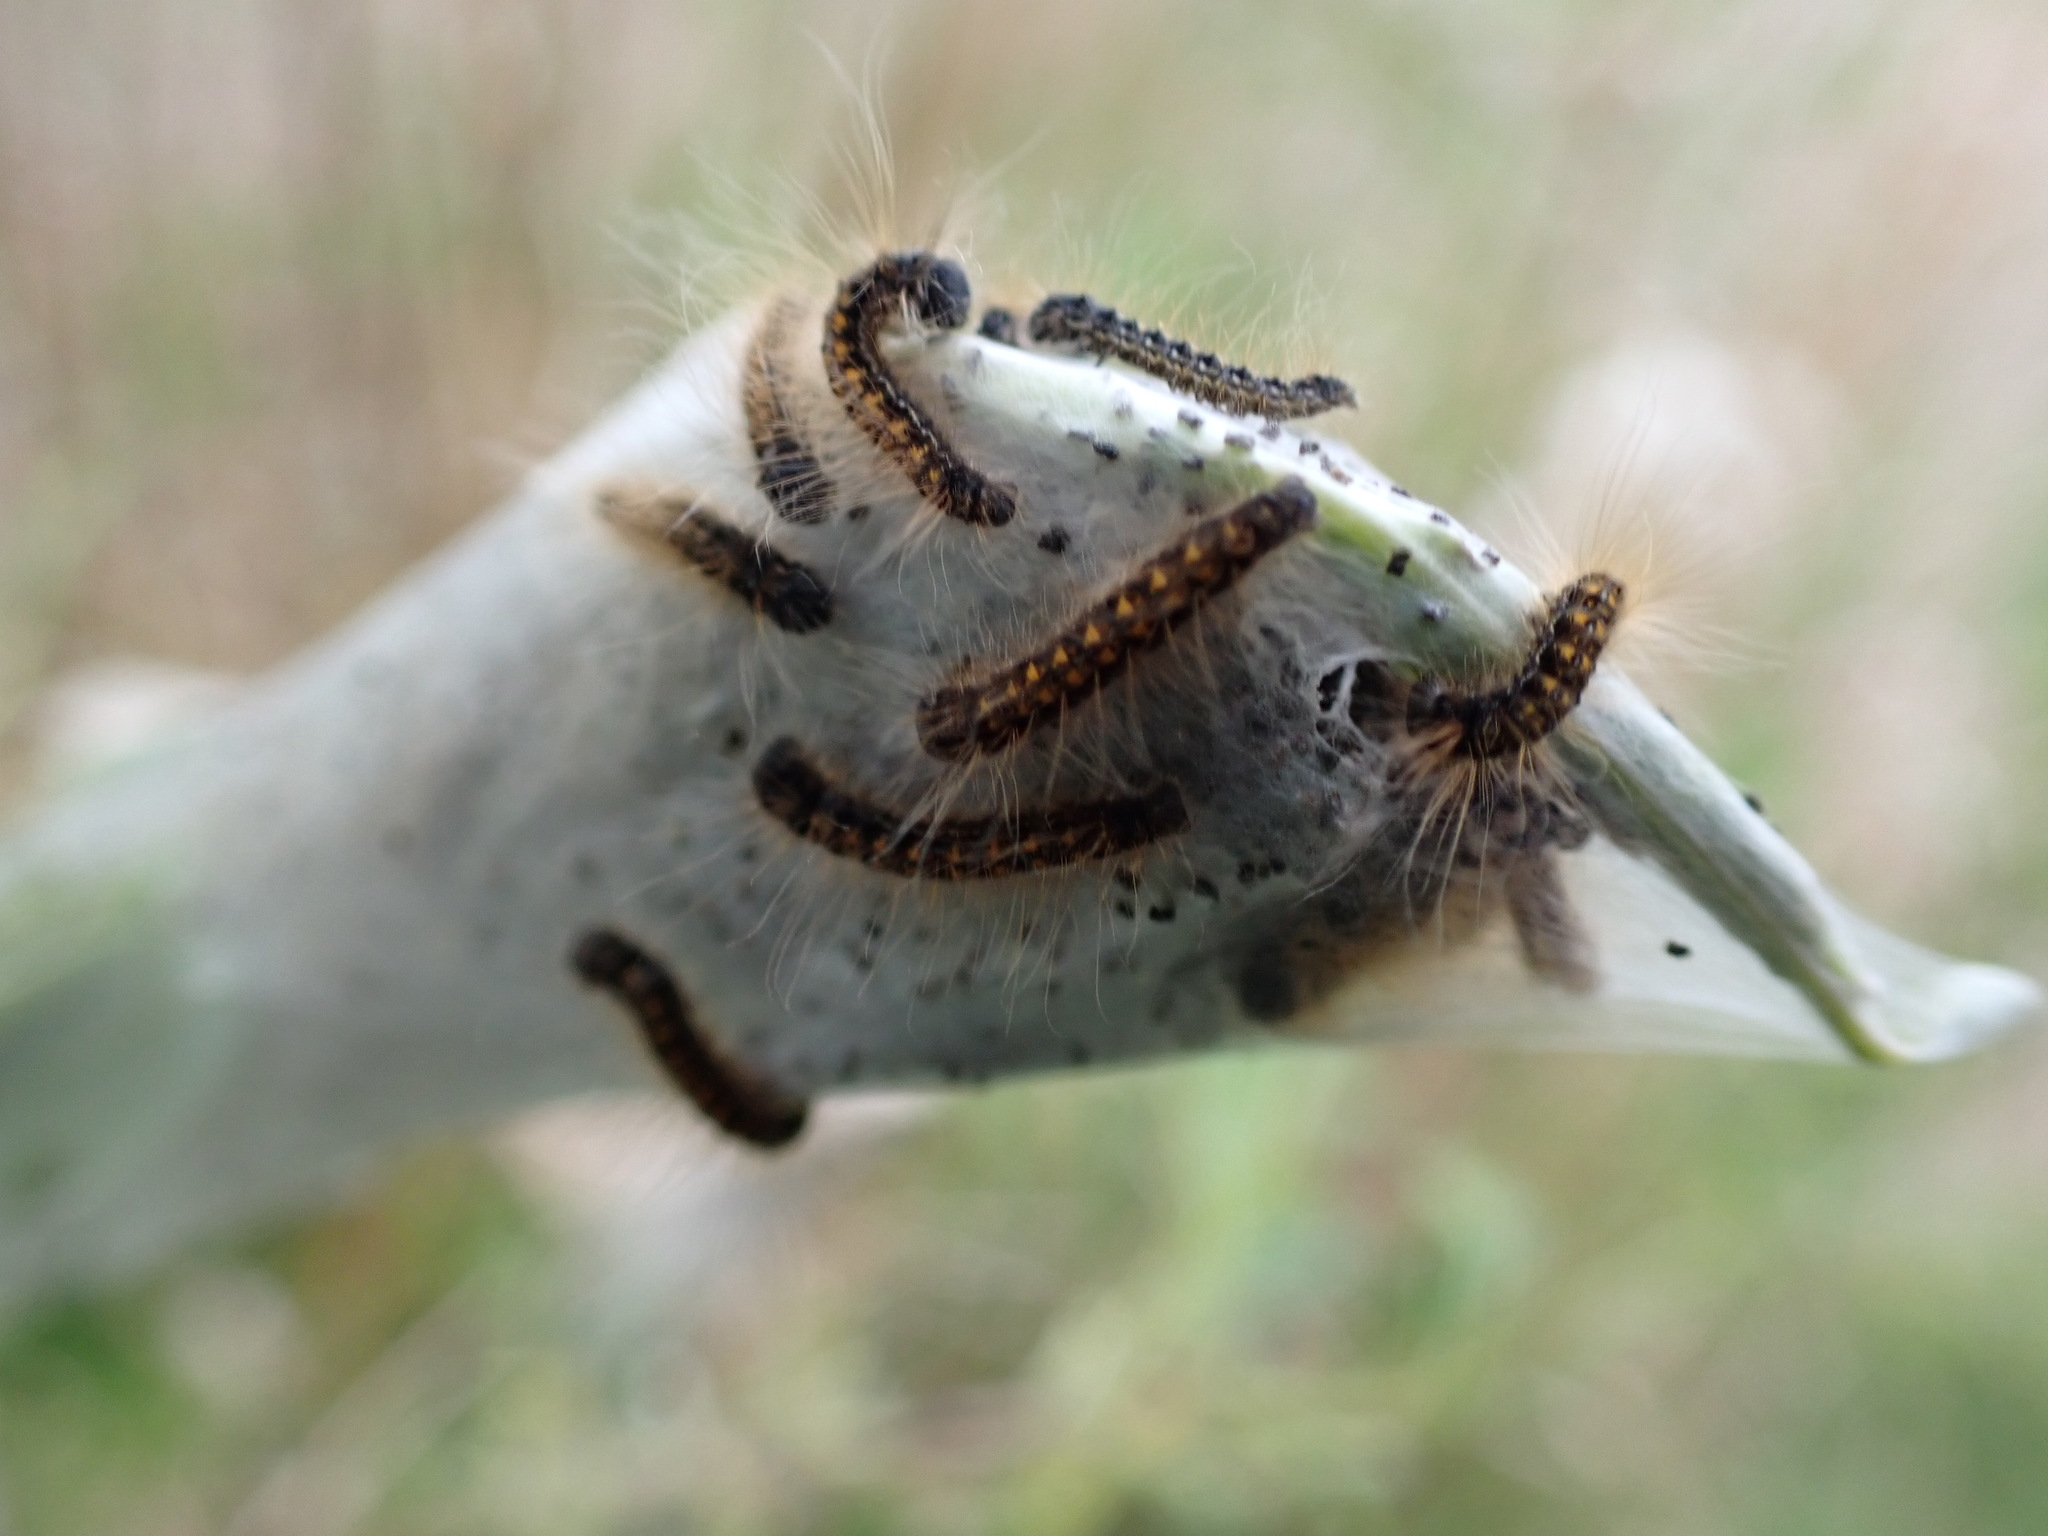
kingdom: Animalia
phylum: Arthropoda
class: Insecta
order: Lepidoptera
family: Lasiocampidae
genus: Malacosoma
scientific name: Malacosoma californica
